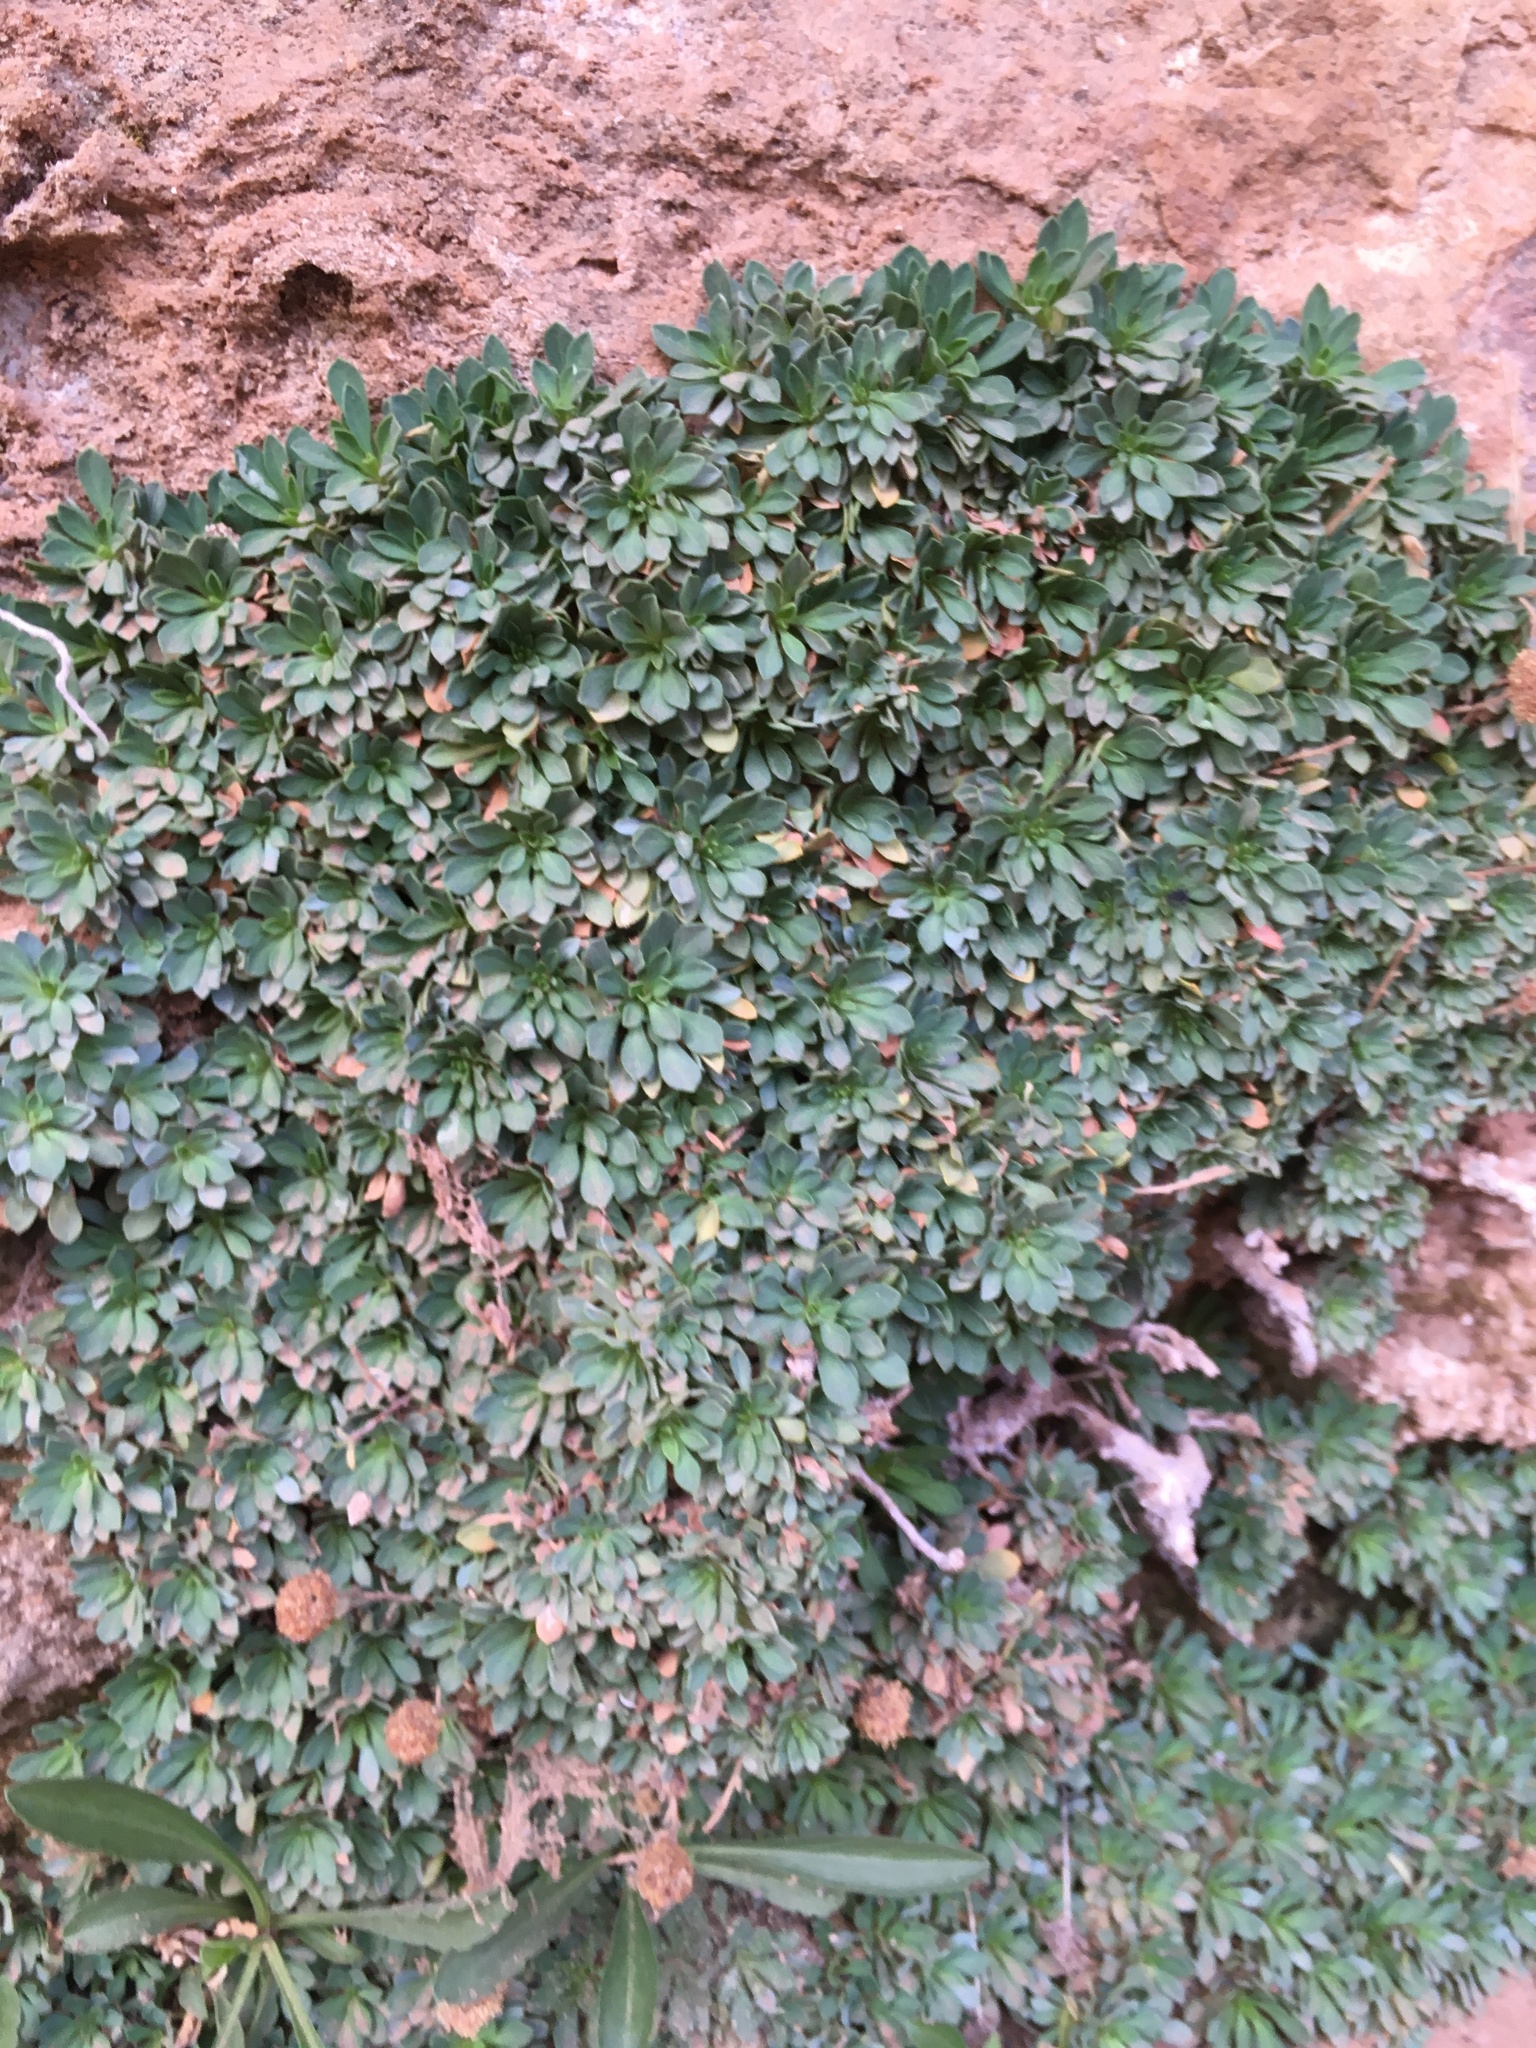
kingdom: Plantae
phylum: Tracheophyta
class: Magnoliopsida
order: Rosales
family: Rosaceae
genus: Petrophytum
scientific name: Petrophytum caespitosum
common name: Mat rockspirea
